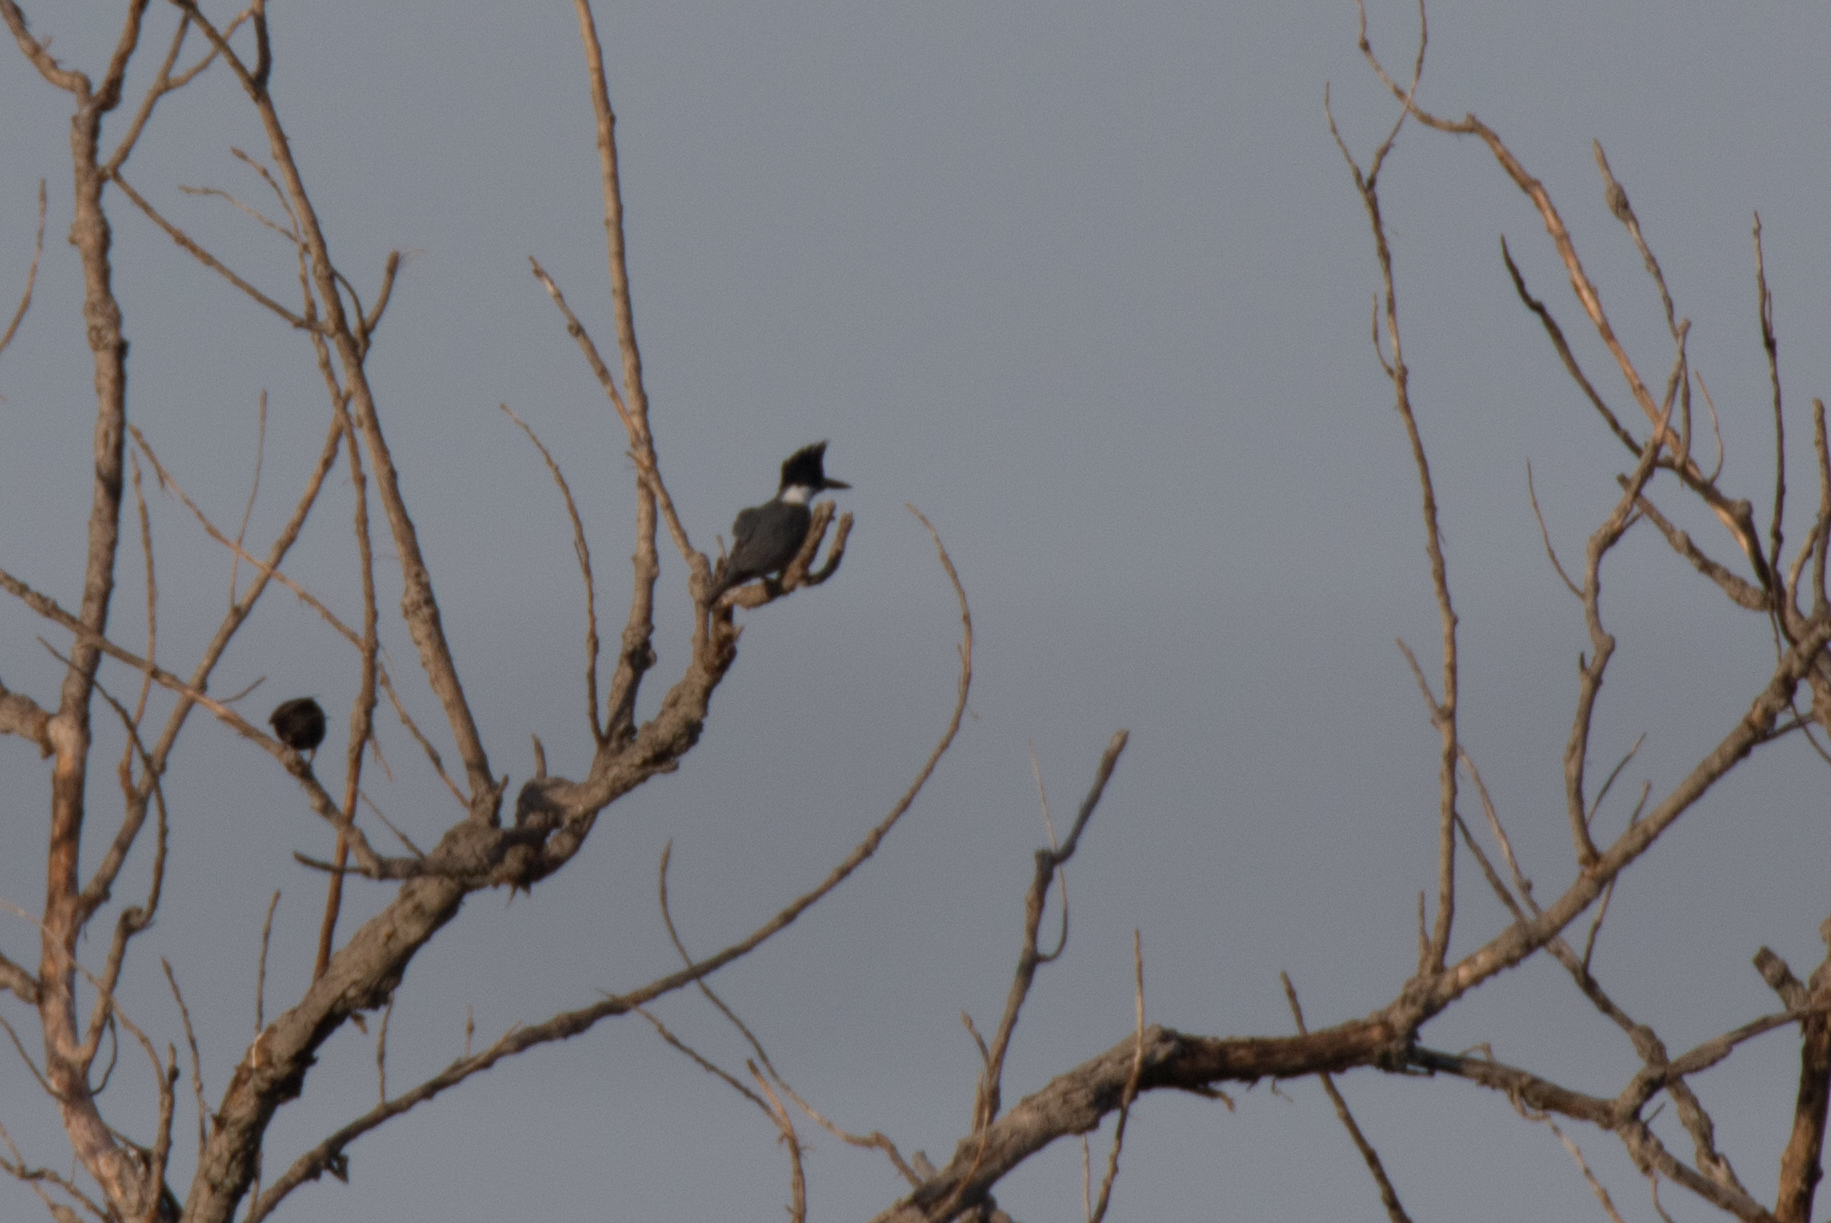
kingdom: Animalia
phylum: Chordata
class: Aves
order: Coraciiformes
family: Alcedinidae
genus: Megaceryle
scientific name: Megaceryle alcyon
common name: Belted kingfisher
